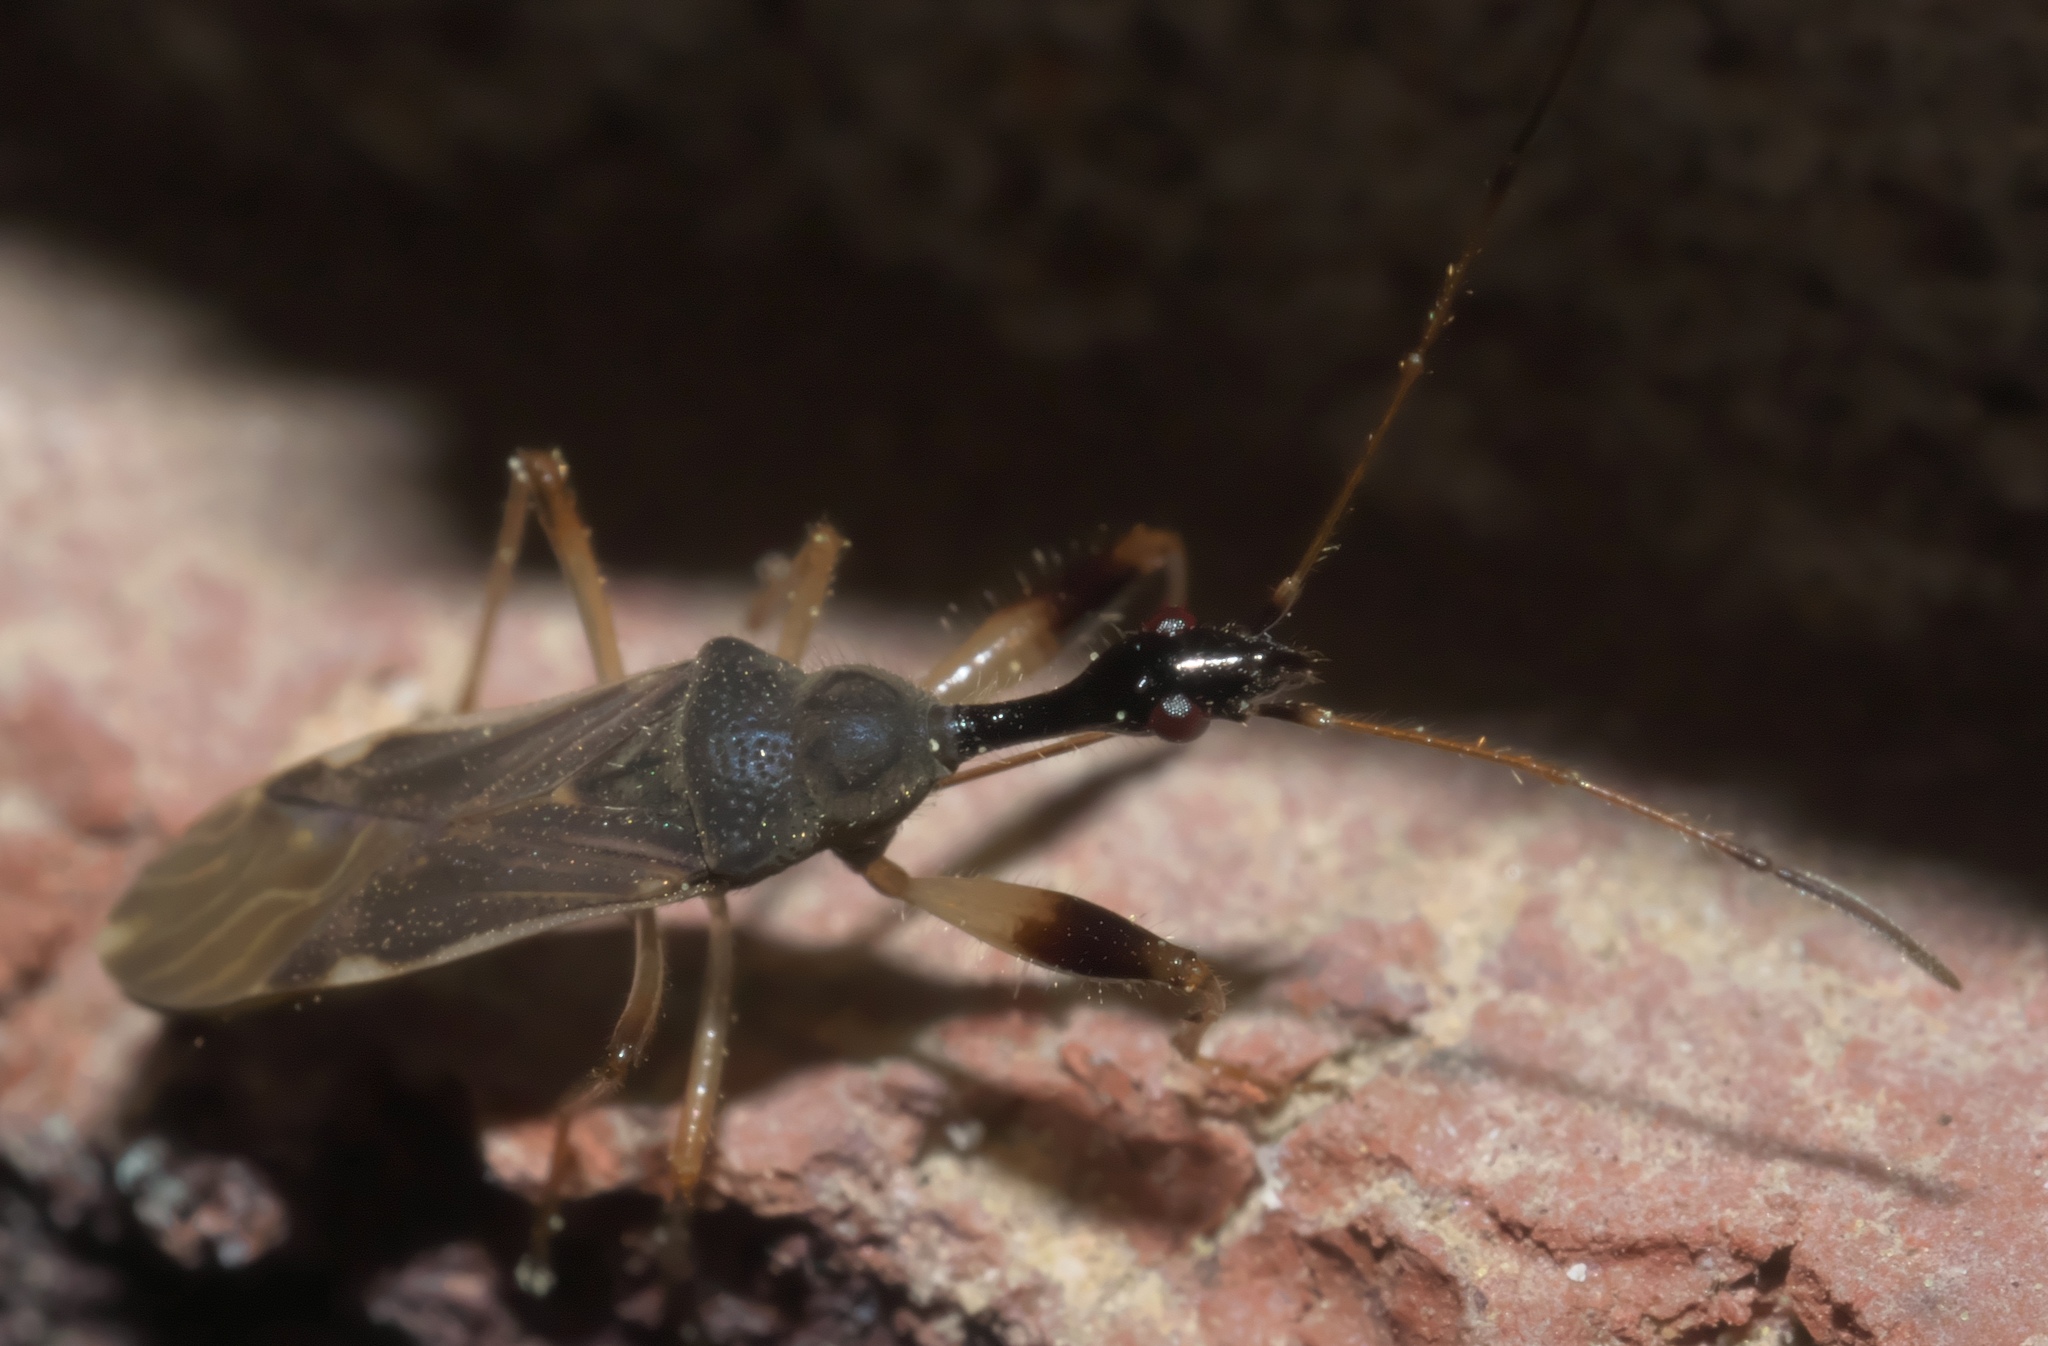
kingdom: Animalia
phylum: Arthropoda
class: Insecta
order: Hemiptera
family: Rhyparochromidae
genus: Myodocha
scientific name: Myodocha serripes
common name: Long-necked seed bug
